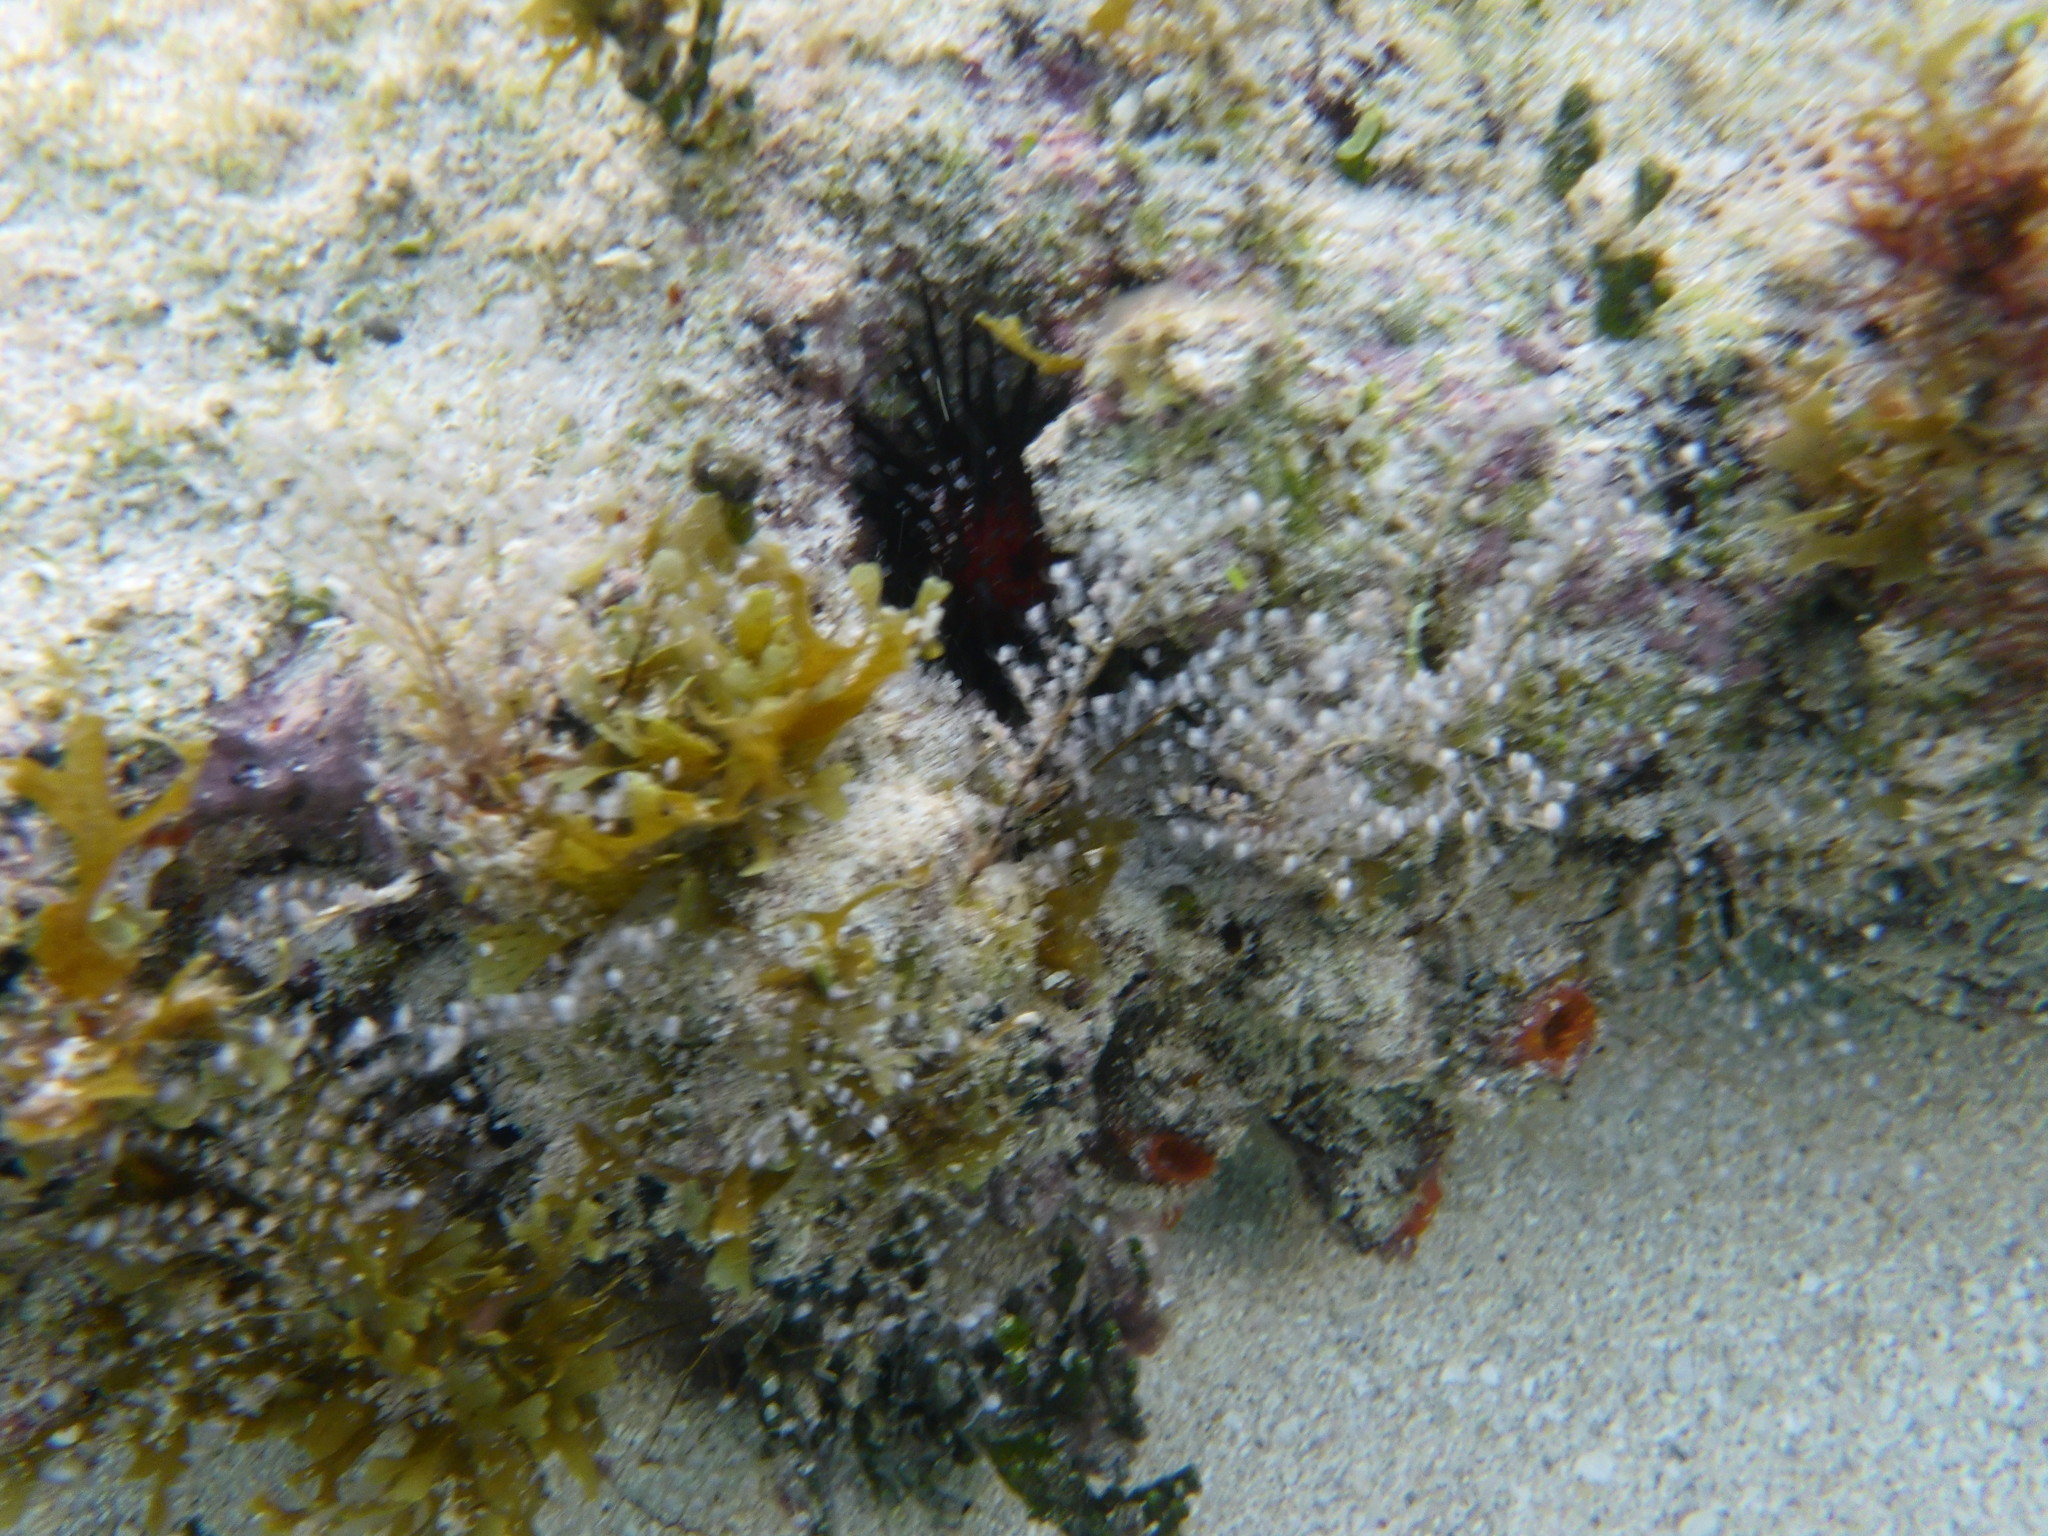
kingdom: Animalia
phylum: Cnidaria
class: Hydrozoa
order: Anthoathecata
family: Pennariidae
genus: Pennaria
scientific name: Pennaria disticha
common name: Feather hydroid
